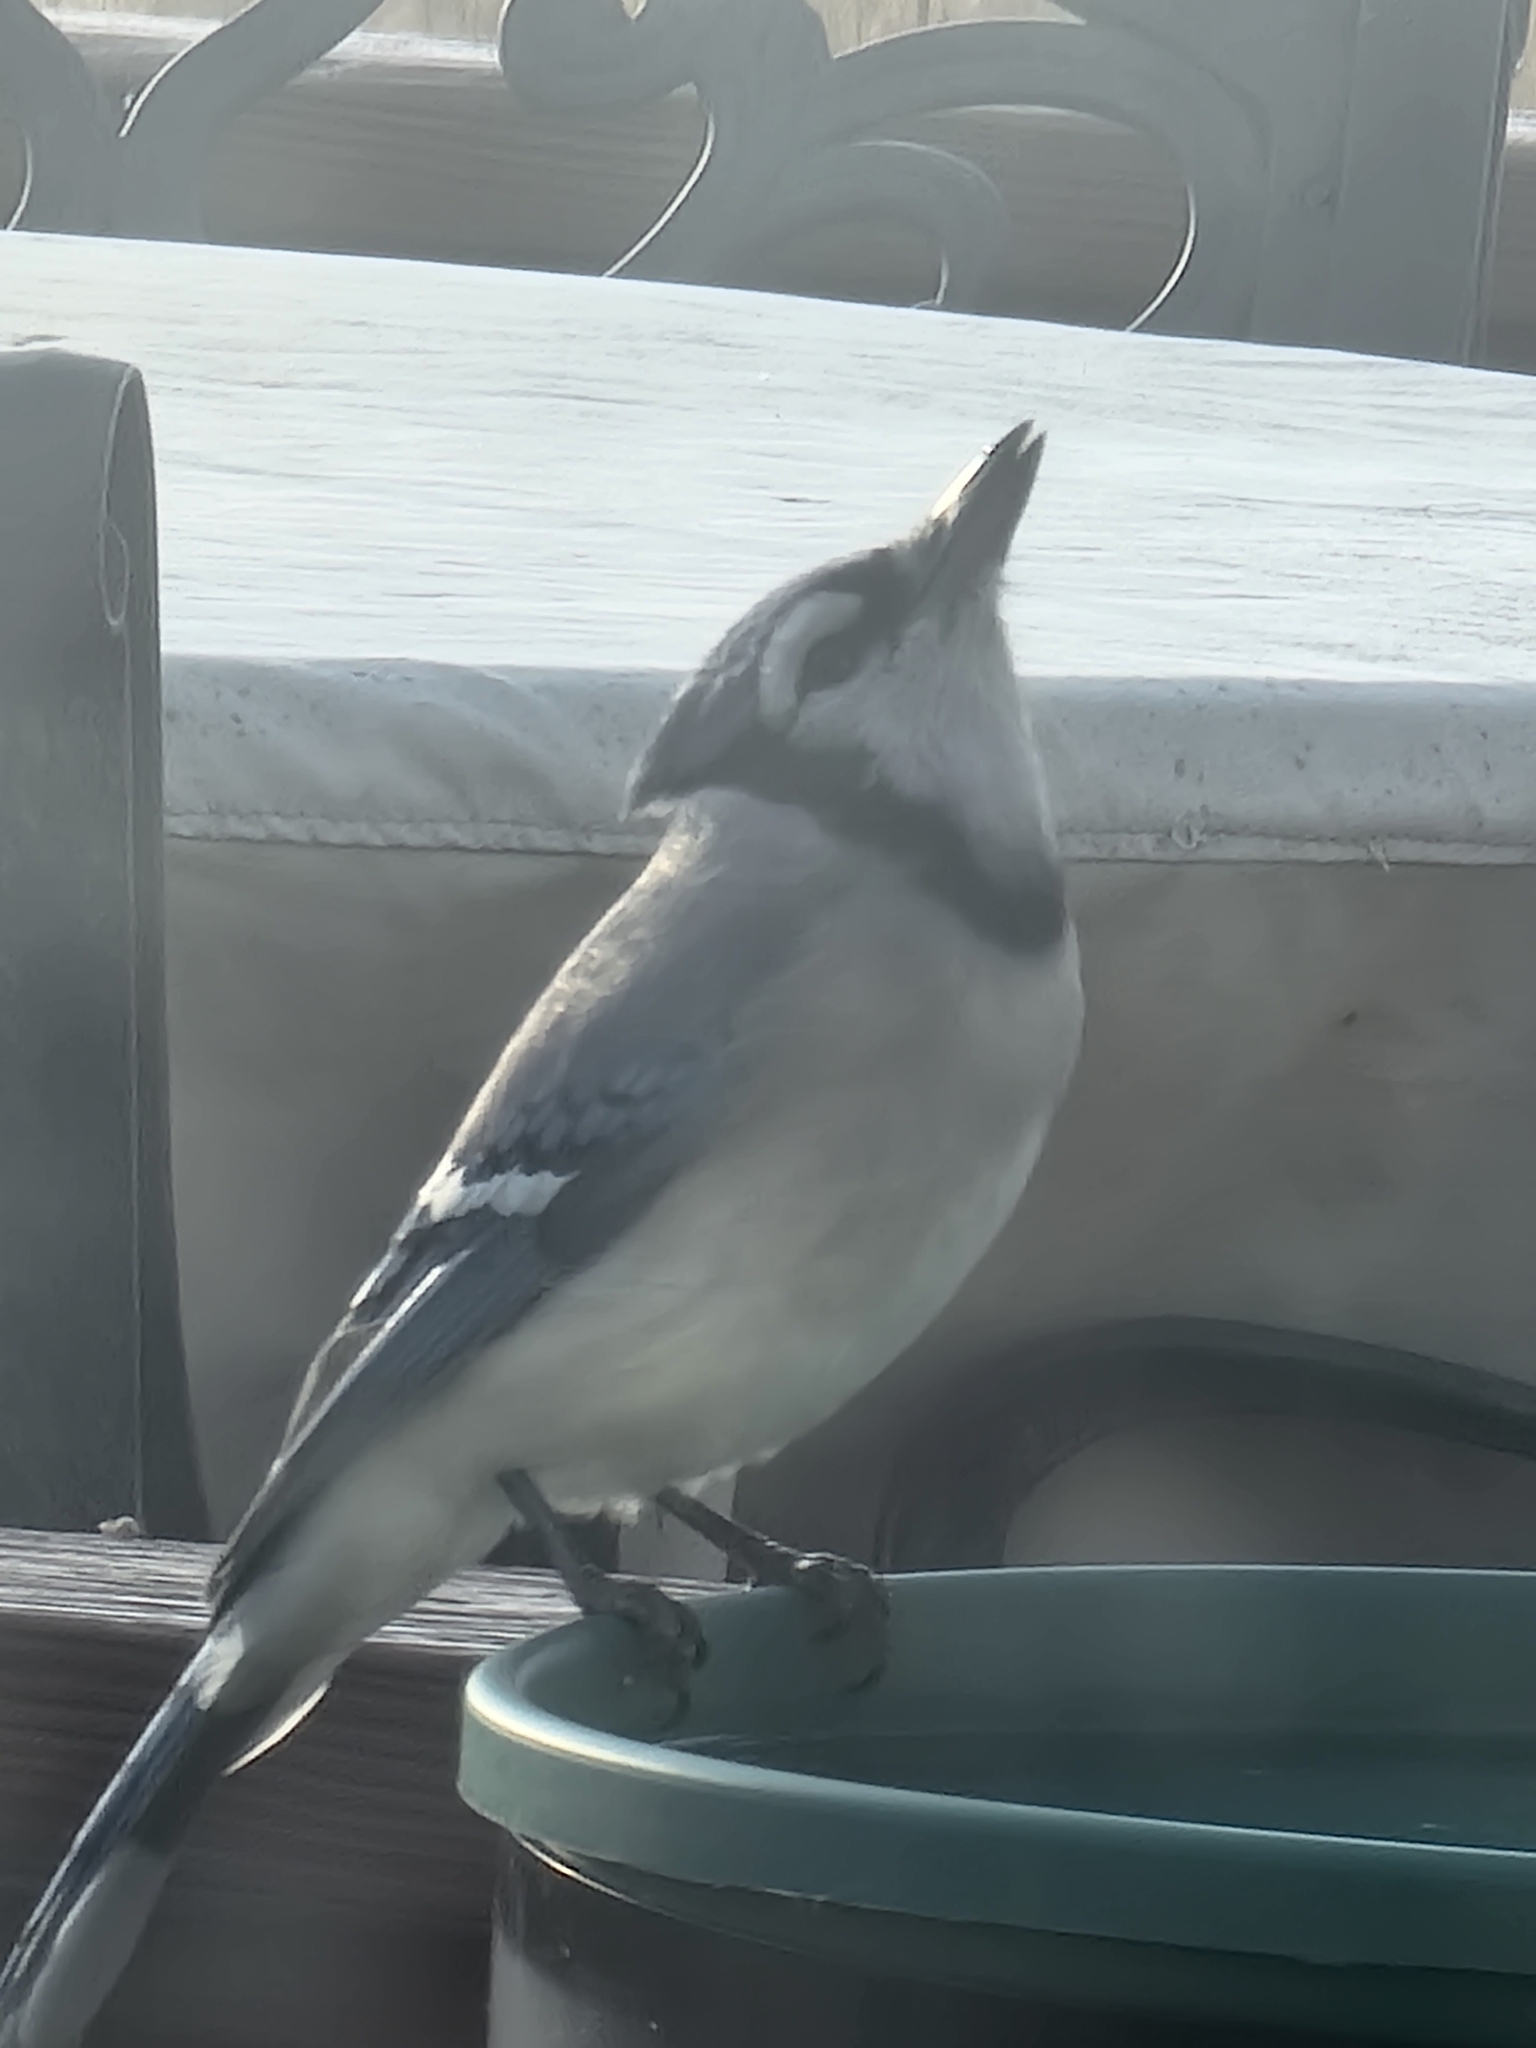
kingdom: Animalia
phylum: Chordata
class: Aves
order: Passeriformes
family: Corvidae
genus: Cyanocitta
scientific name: Cyanocitta cristata
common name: Blue jay
